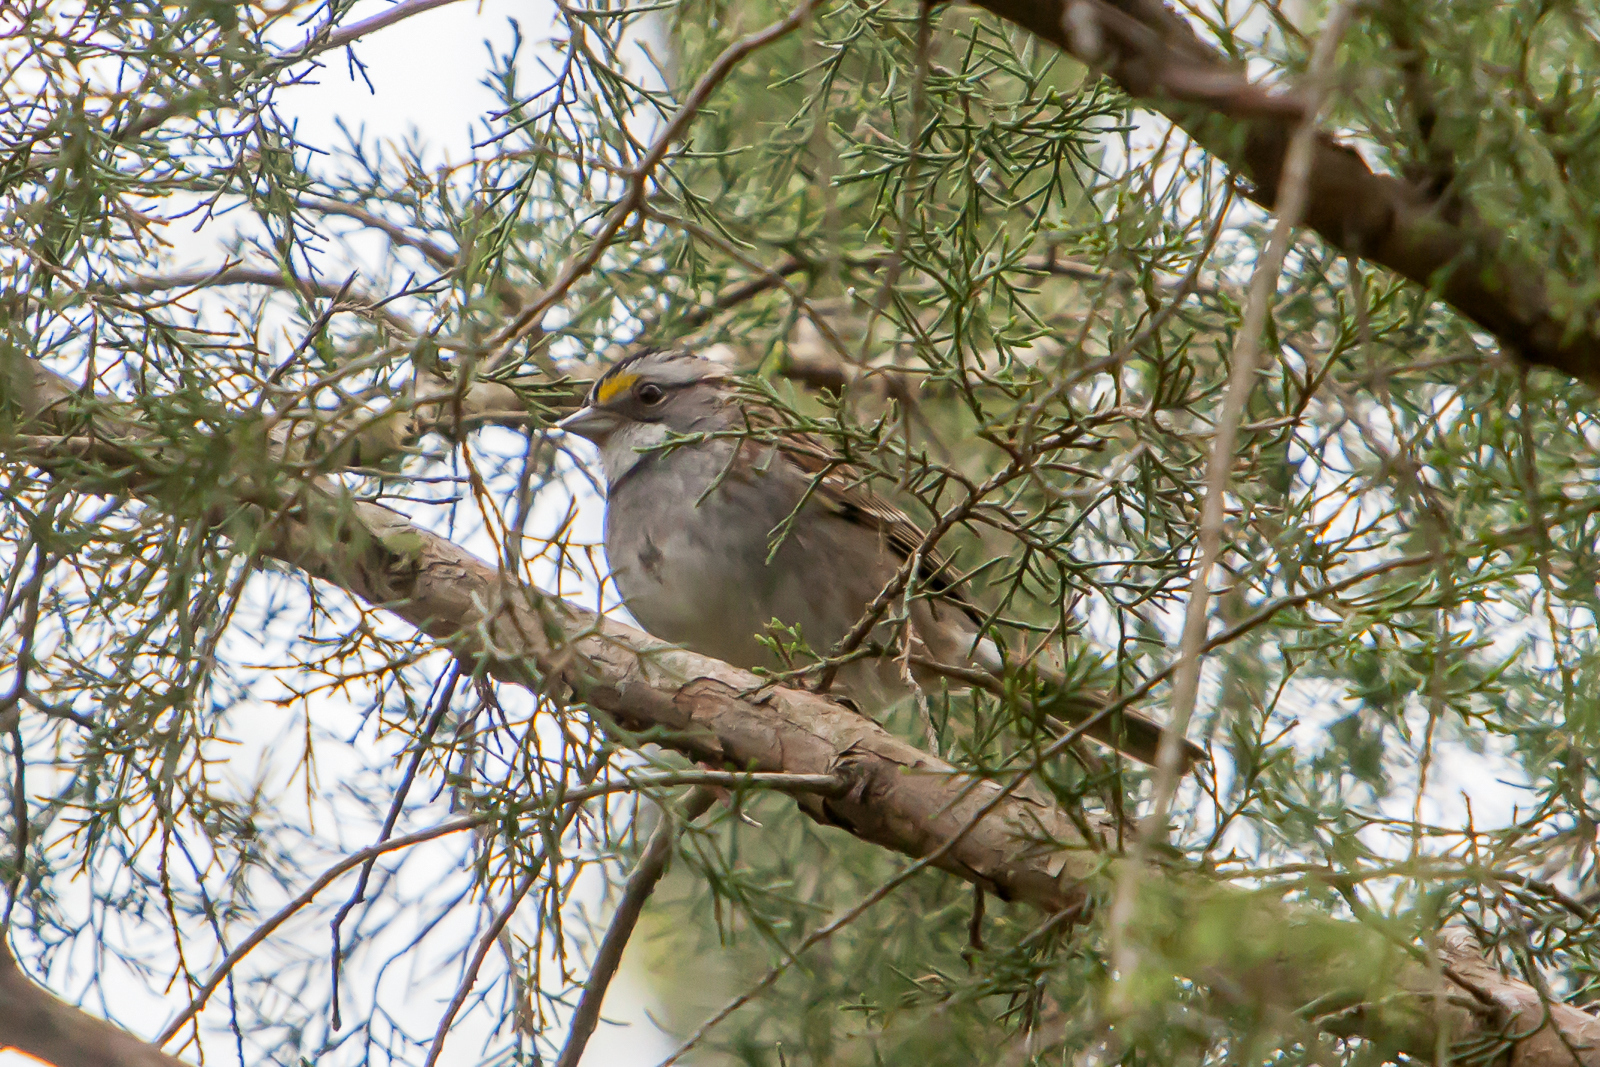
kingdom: Animalia
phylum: Chordata
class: Aves
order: Passeriformes
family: Passerellidae
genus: Zonotrichia
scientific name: Zonotrichia albicollis
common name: White-throated sparrow
